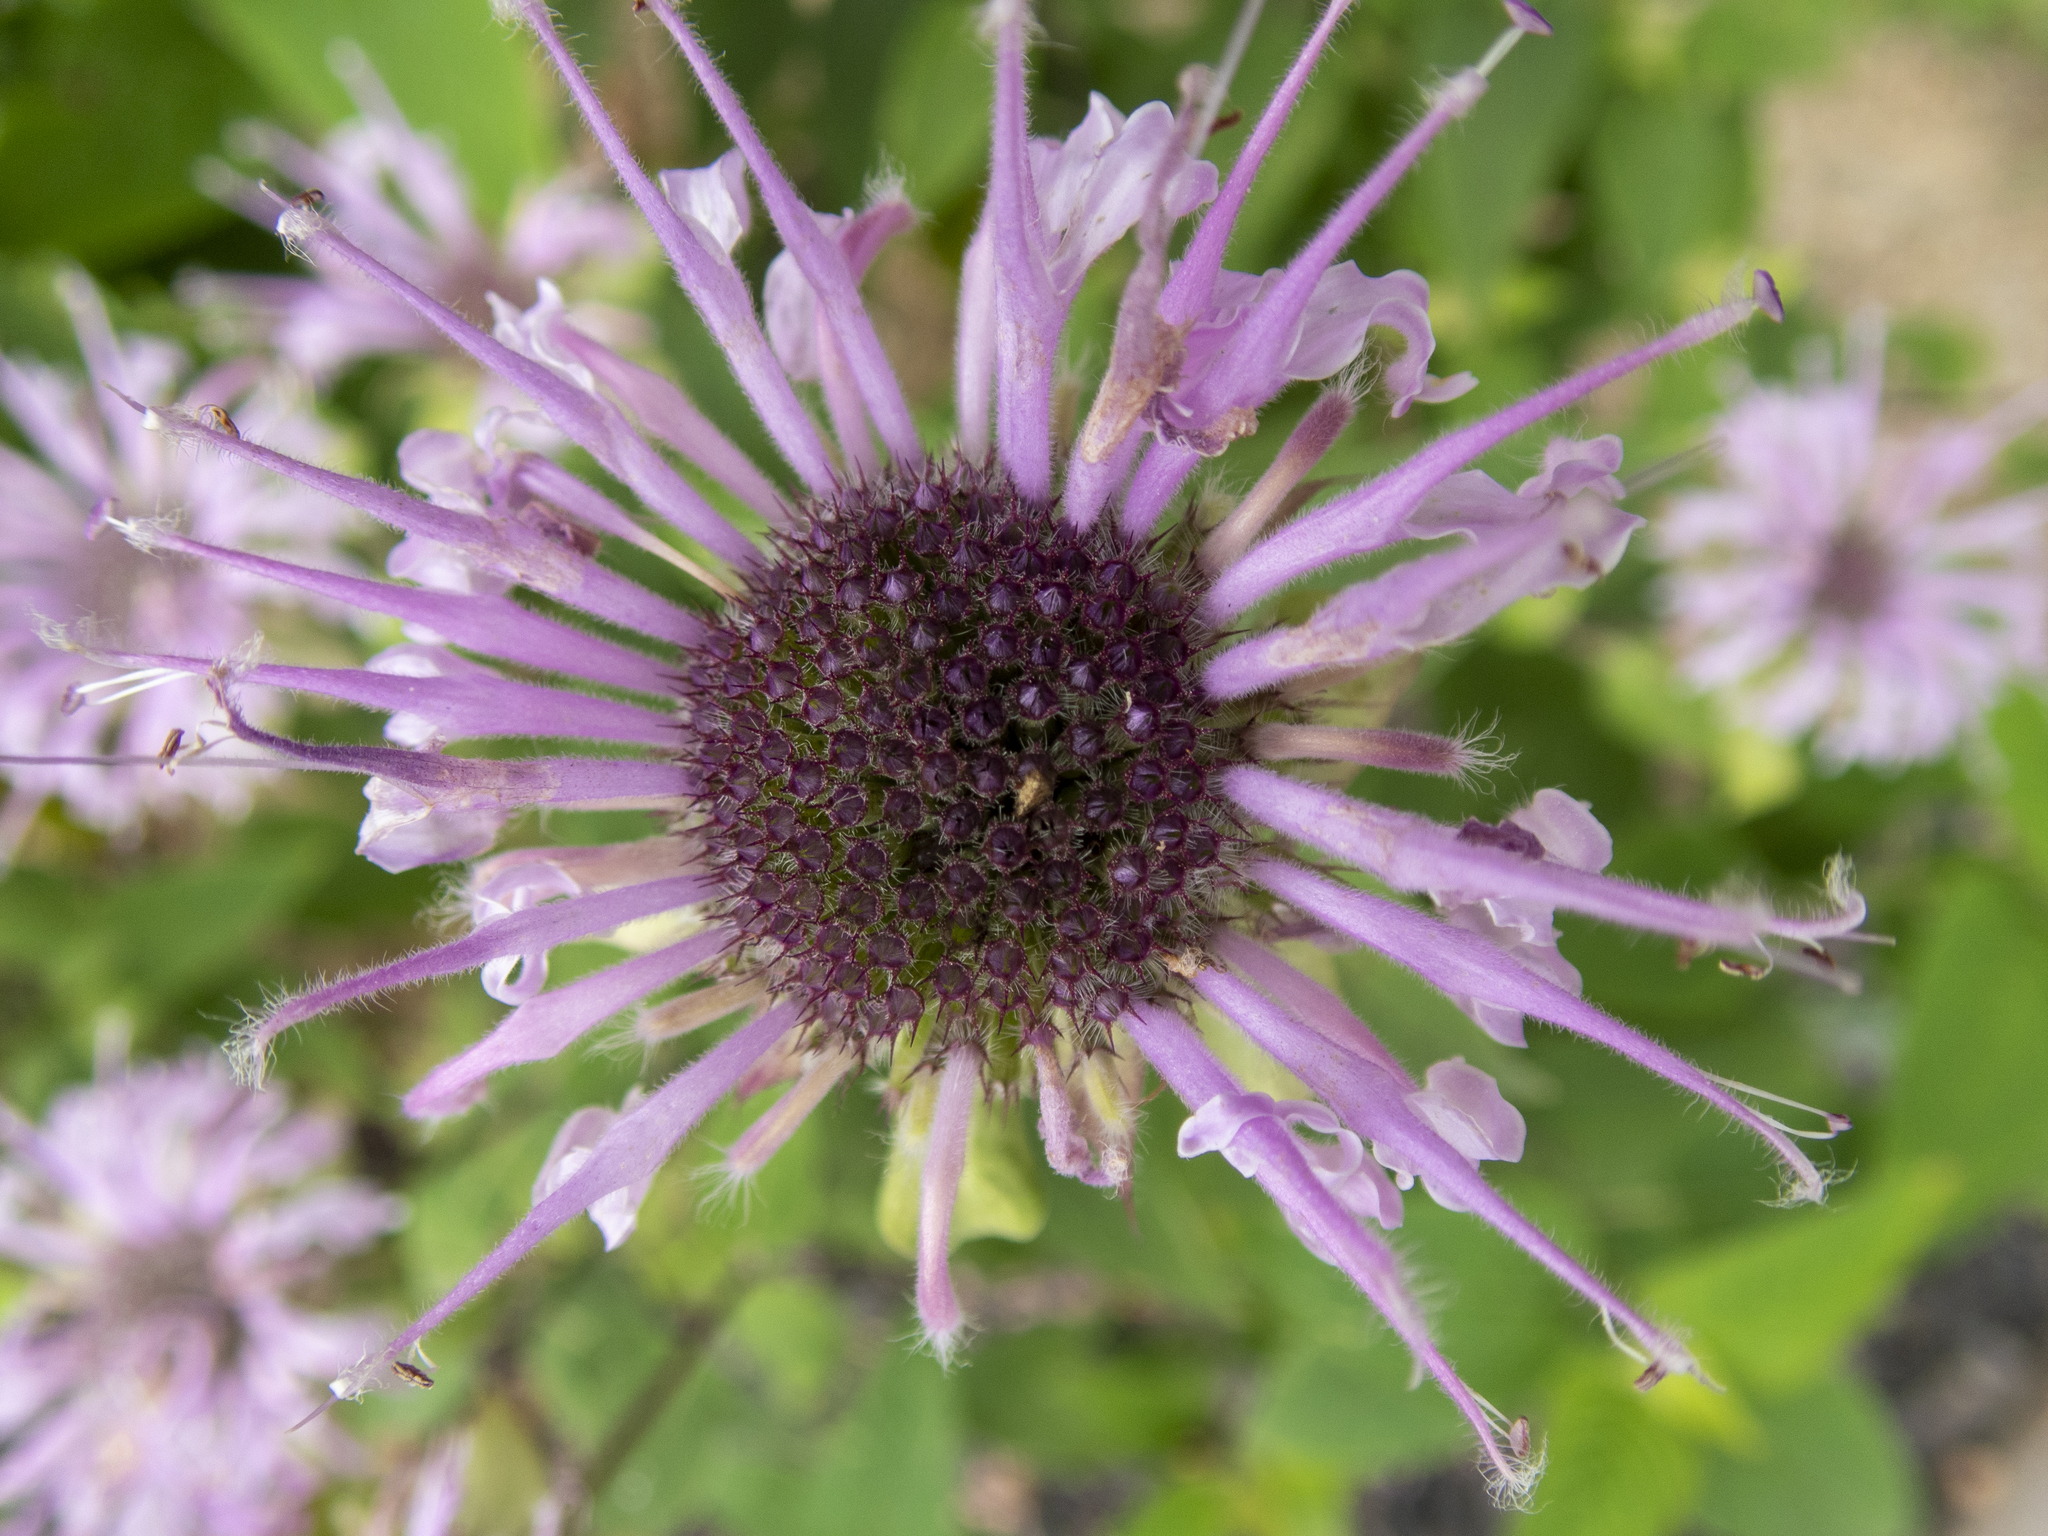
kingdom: Plantae
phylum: Tracheophyta
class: Magnoliopsida
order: Lamiales
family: Lamiaceae
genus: Monarda
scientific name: Monarda fistulosa
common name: Purple beebalm
